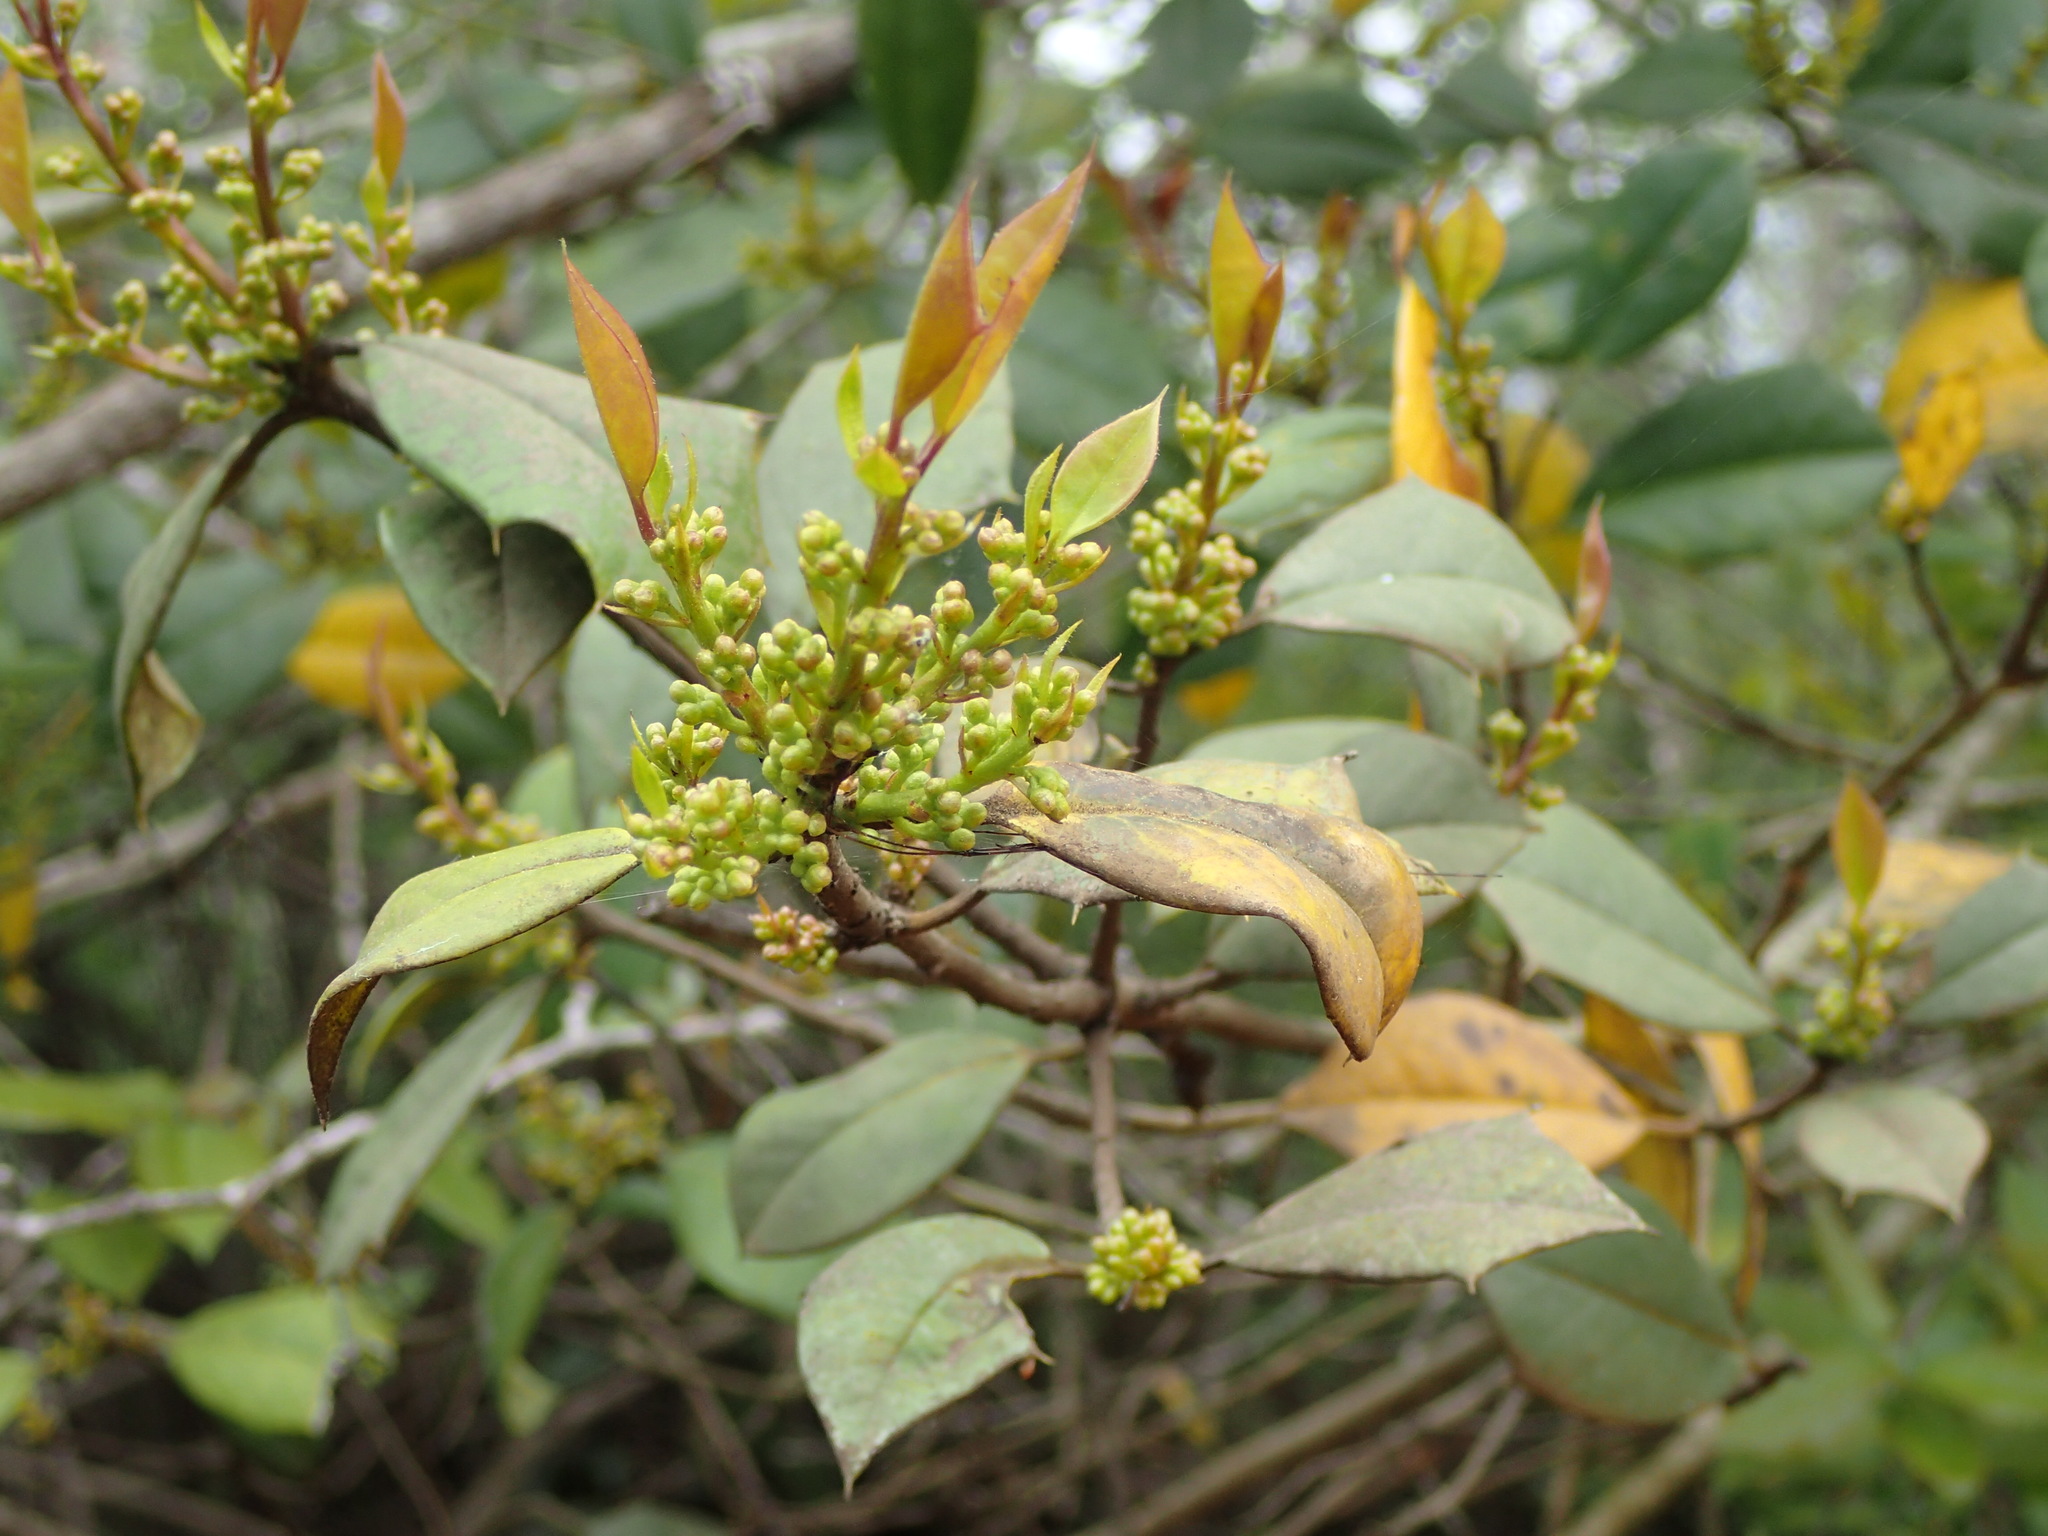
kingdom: Plantae
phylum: Tracheophyta
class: Magnoliopsida
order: Aquifoliales
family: Aquifoliaceae
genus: Ilex
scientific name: Ilex opaca
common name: American holly
